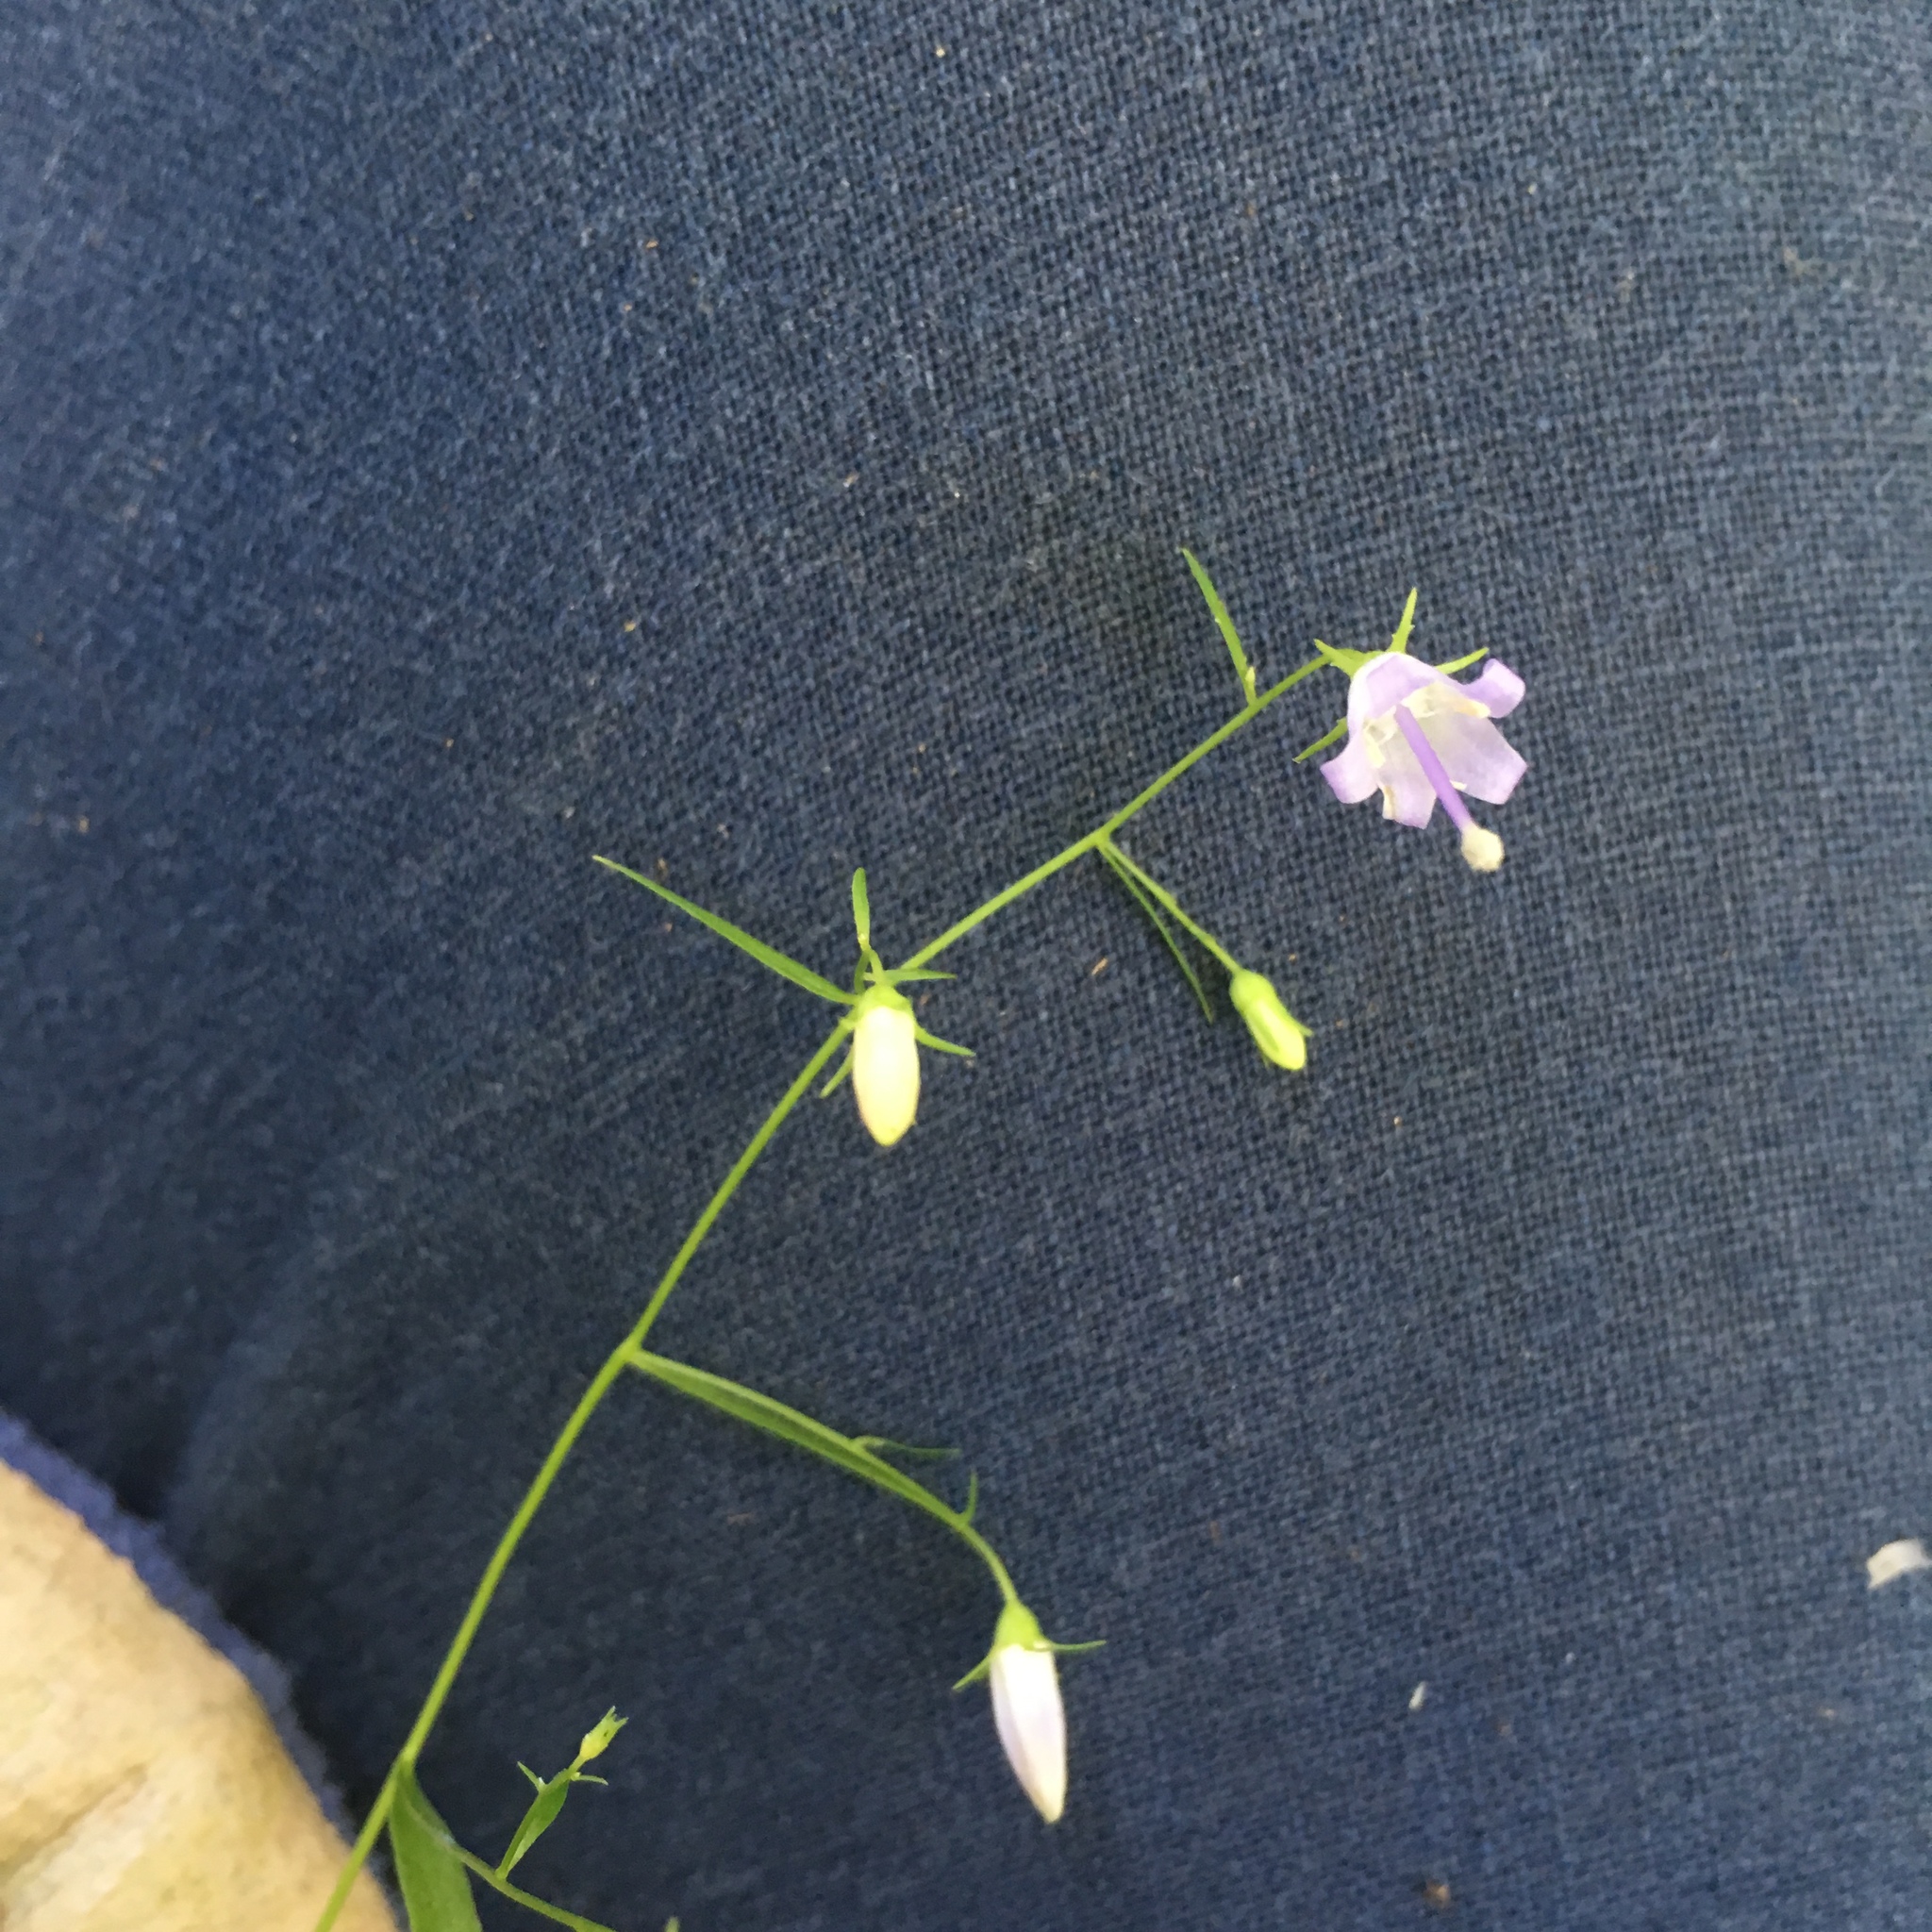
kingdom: Plantae
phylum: Tracheophyta
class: Magnoliopsida
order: Asterales
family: Campanulaceae
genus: Campanula
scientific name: Campanula divaricata
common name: Appalachian bellflower
